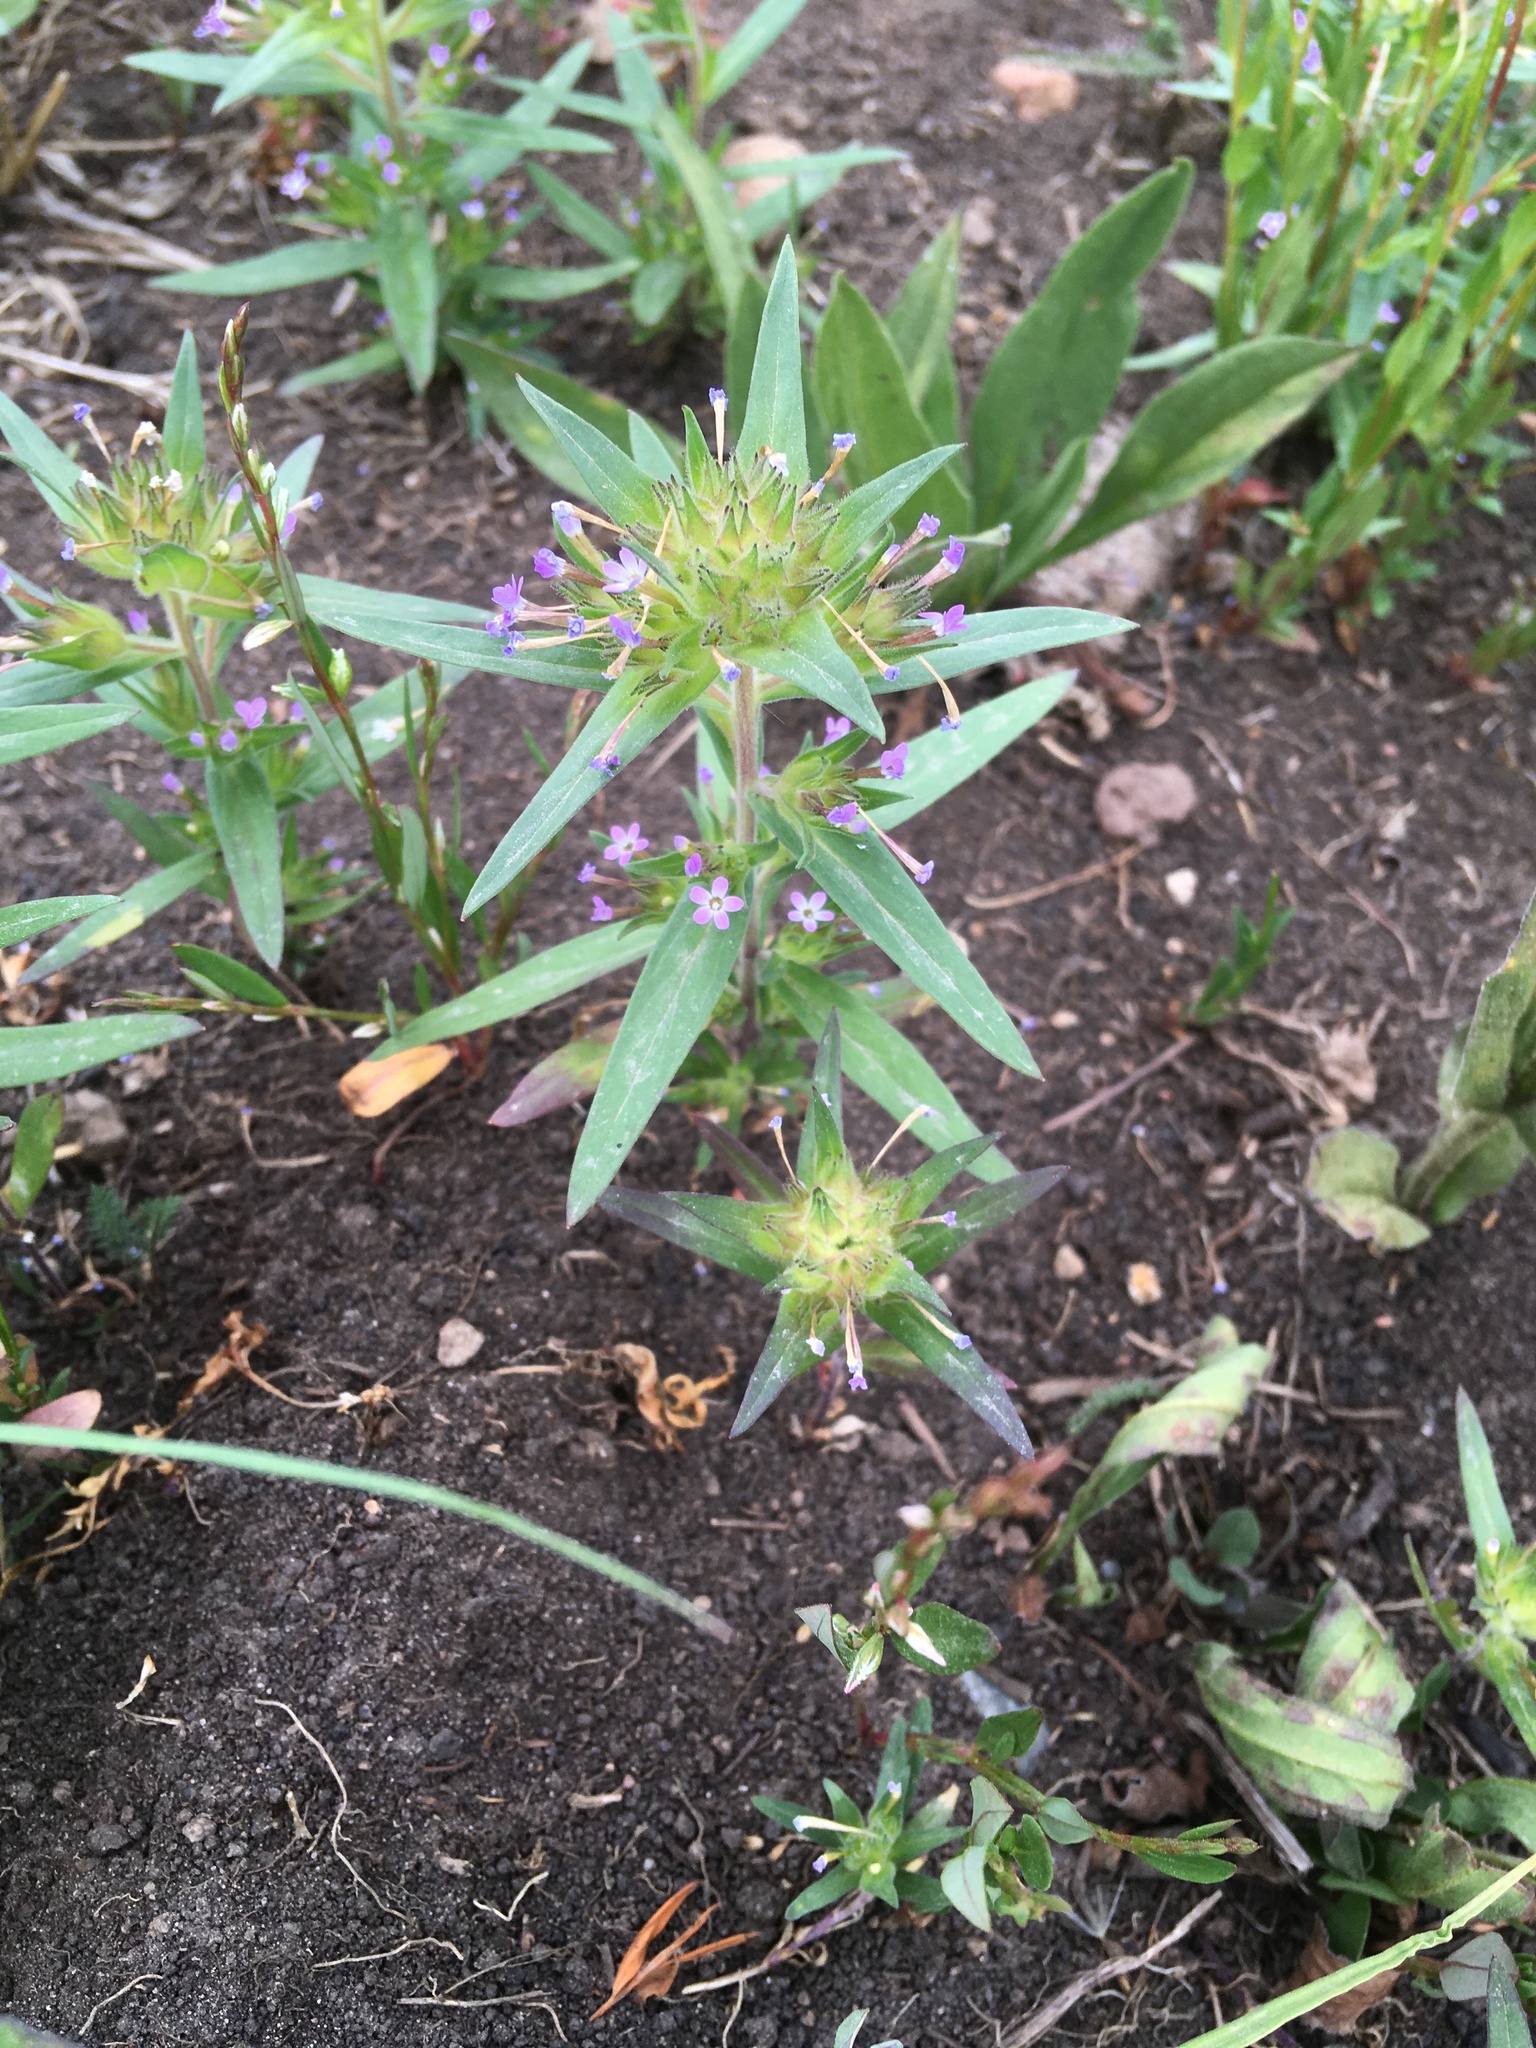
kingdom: Plantae
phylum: Tracheophyta
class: Magnoliopsida
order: Ericales
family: Polemoniaceae
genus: Collomia
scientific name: Collomia linearis
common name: Tiny trumpet
